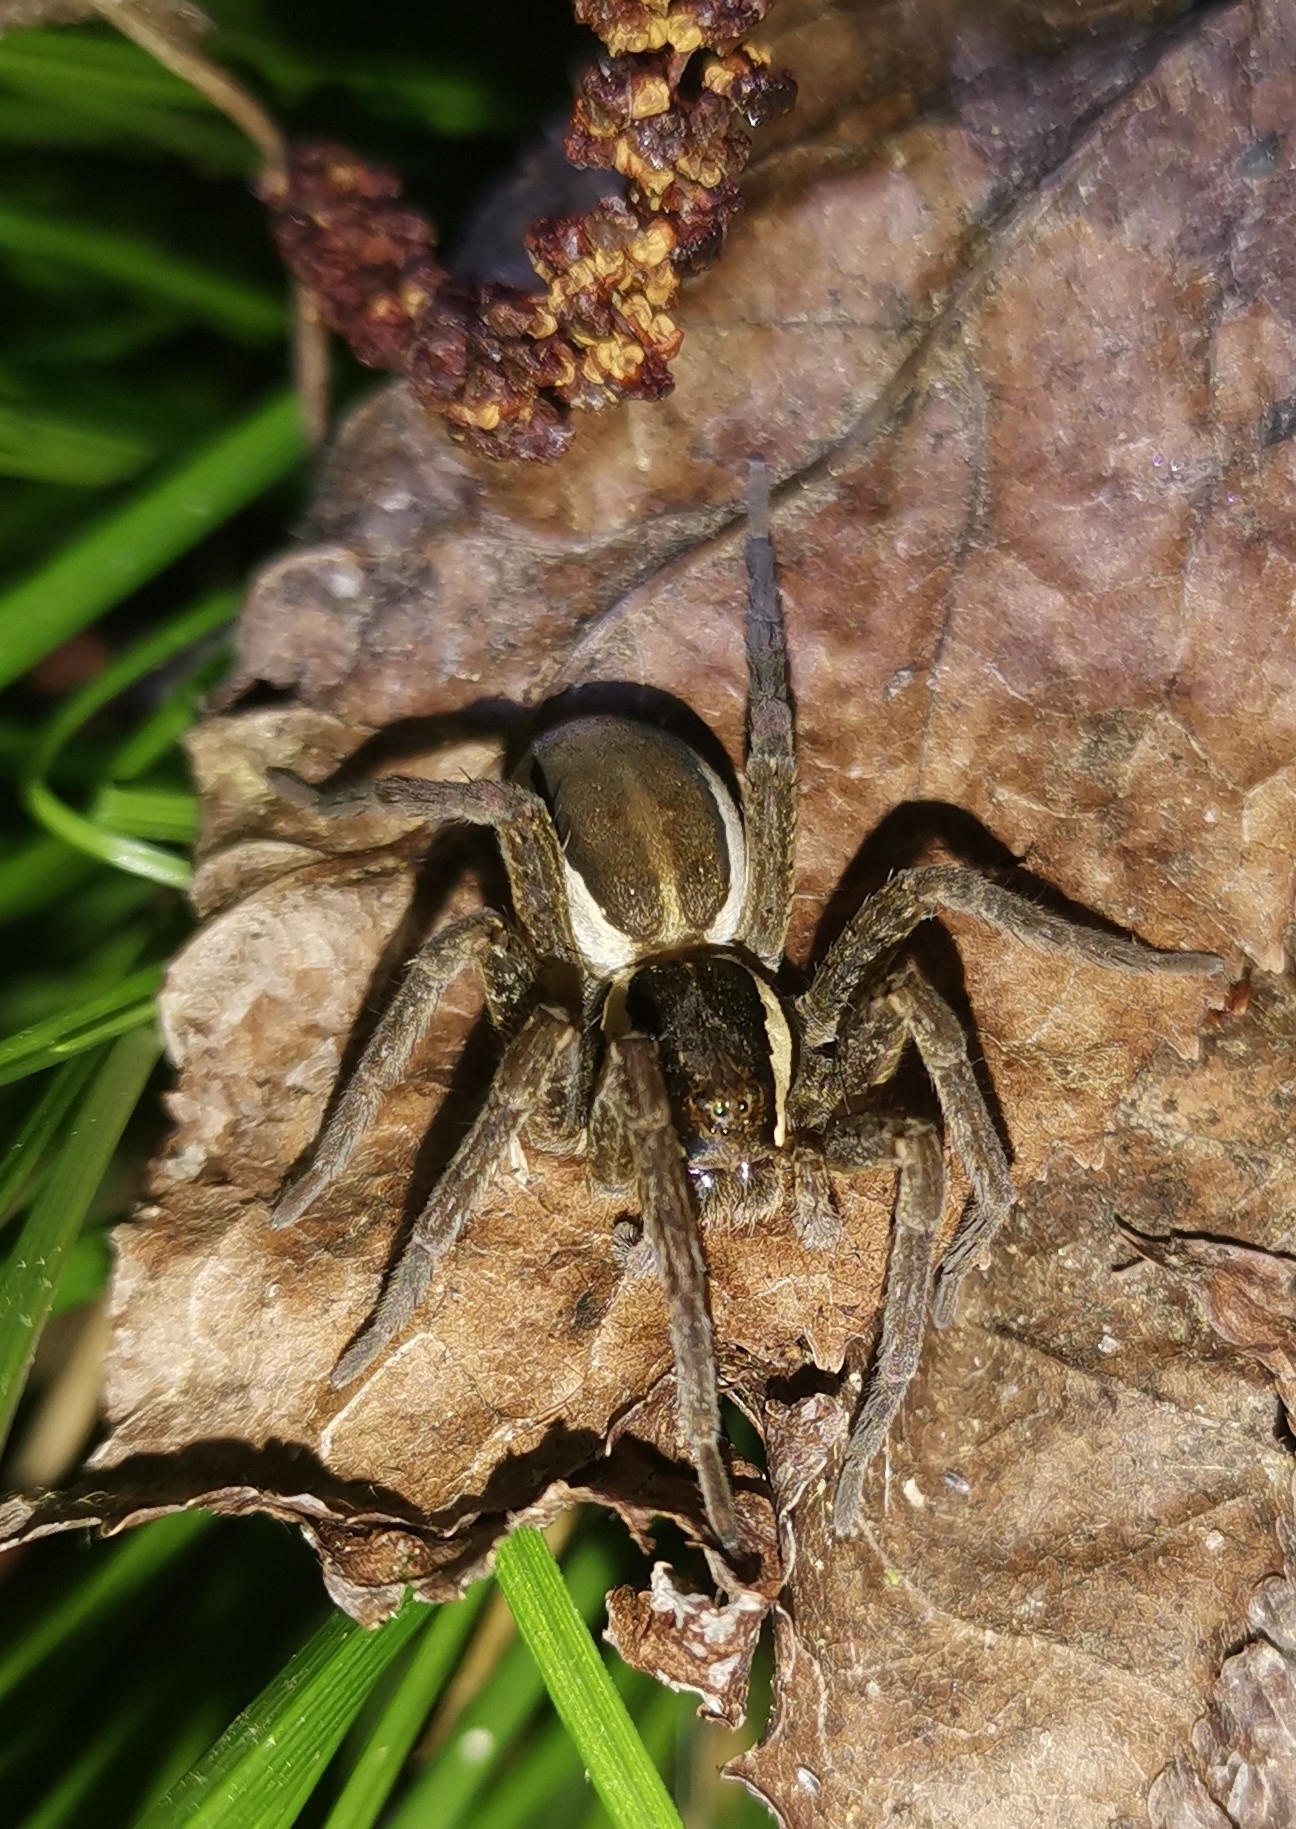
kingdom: Animalia
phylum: Arthropoda
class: Arachnida
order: Araneae
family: Pisauridae
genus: Dolomedes
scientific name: Dolomedes fimbriatus
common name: Raft spider
